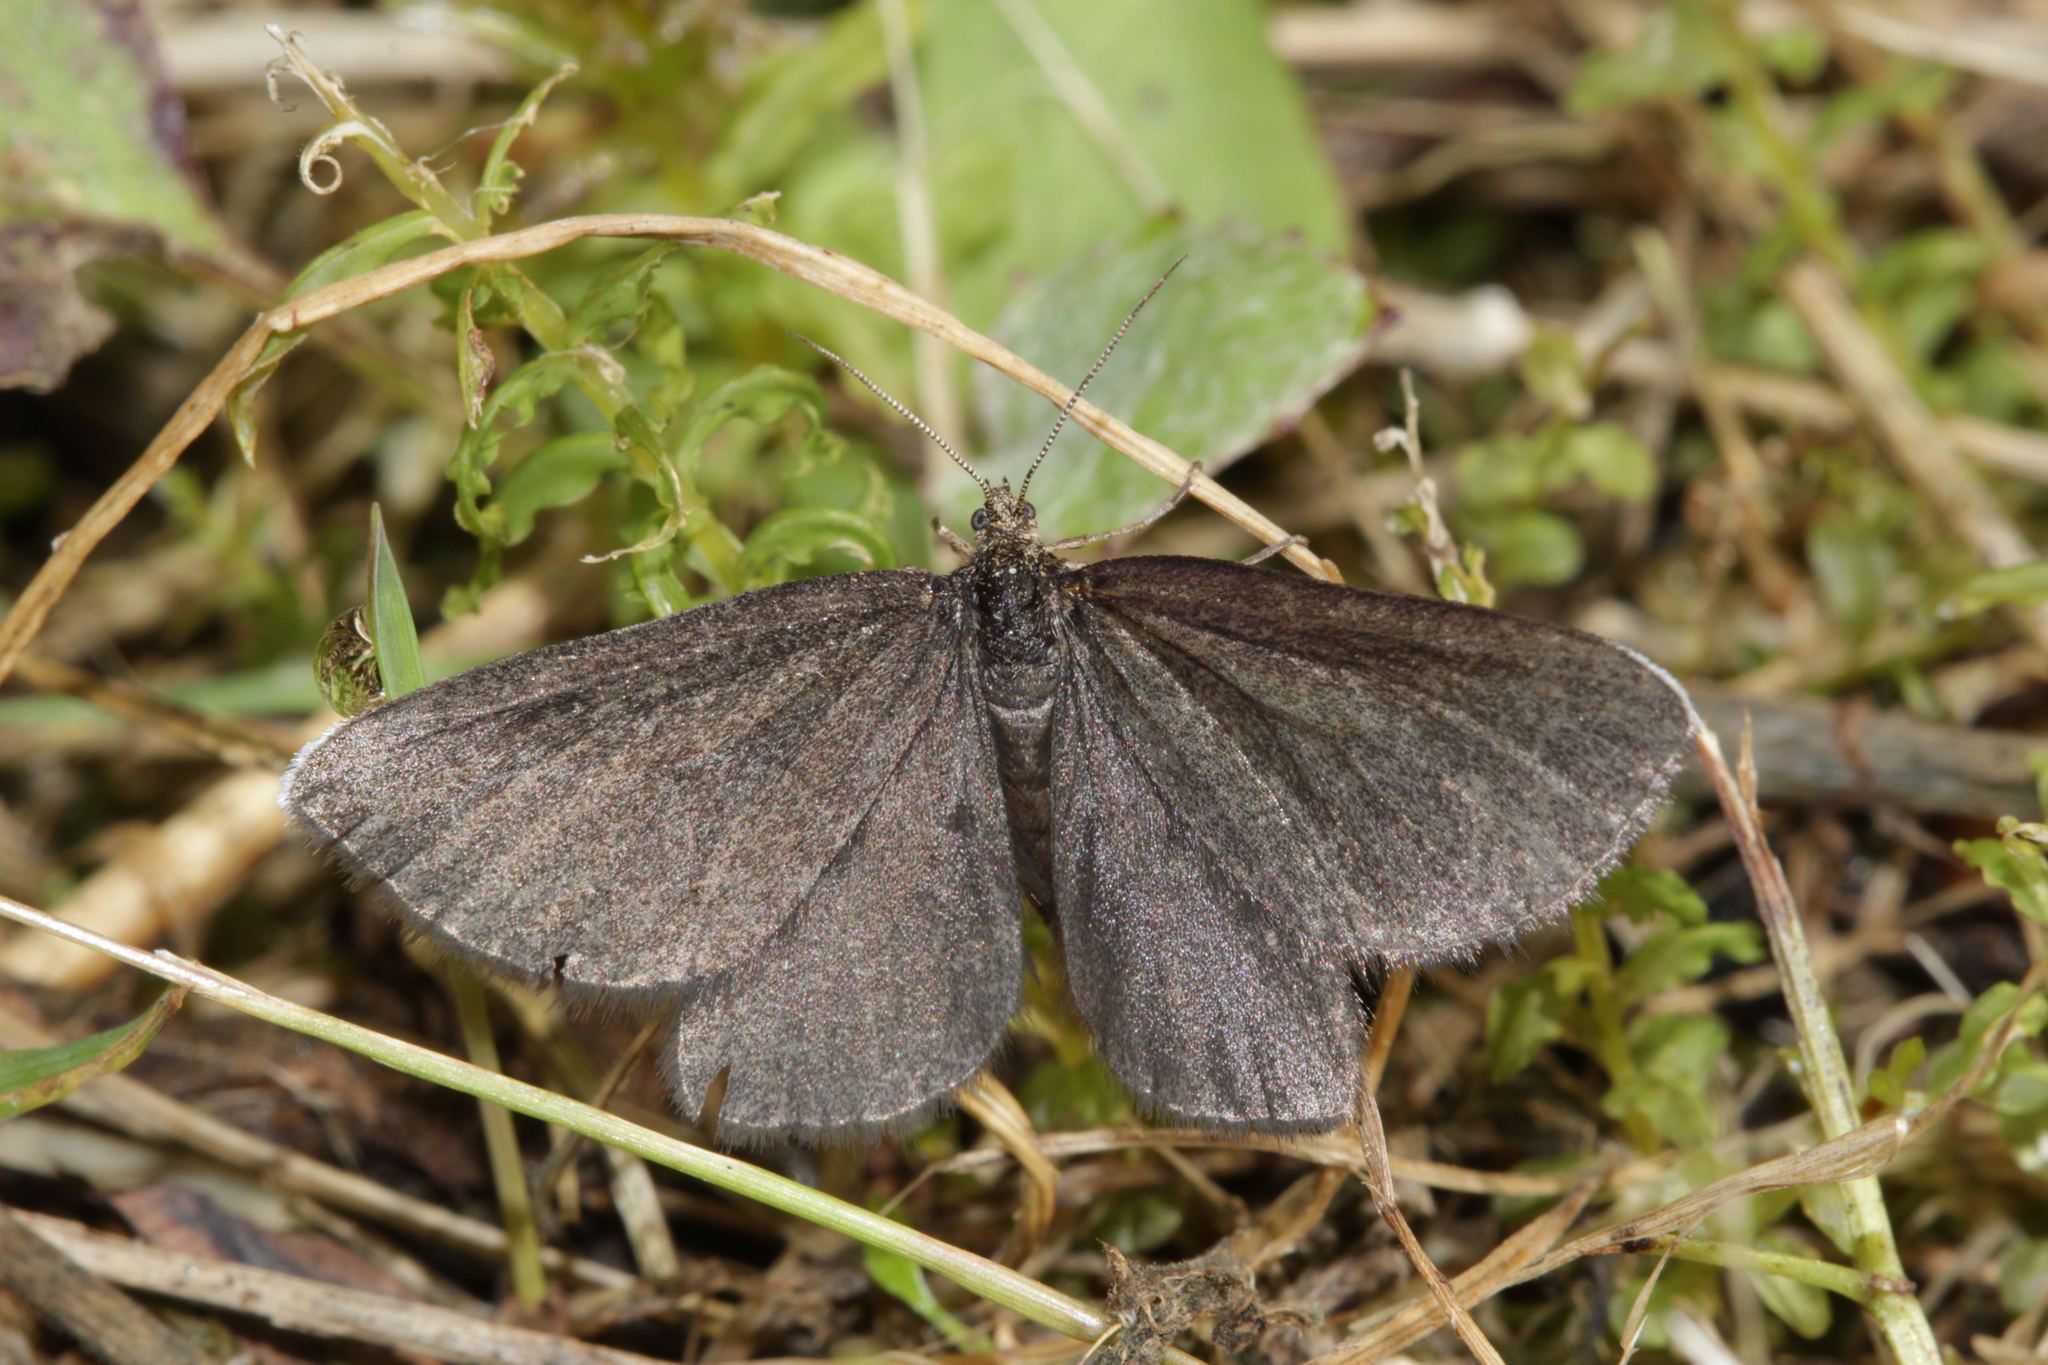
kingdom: Animalia
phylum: Arthropoda
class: Insecta
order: Lepidoptera
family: Geometridae
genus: Odezia
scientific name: Odezia atrata
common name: Chimney sweeper
